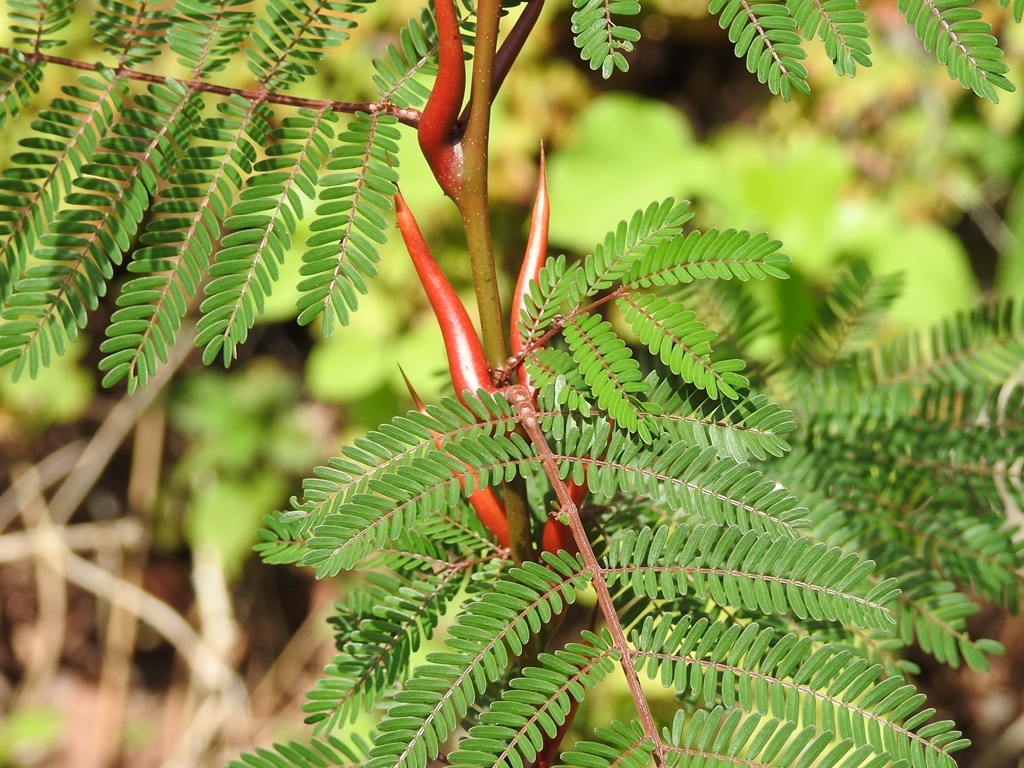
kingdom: Plantae
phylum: Tracheophyta
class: Magnoliopsida
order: Fabales
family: Fabaceae
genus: Vachellia
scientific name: Vachellia cornigera
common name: Bullhorn wattle
